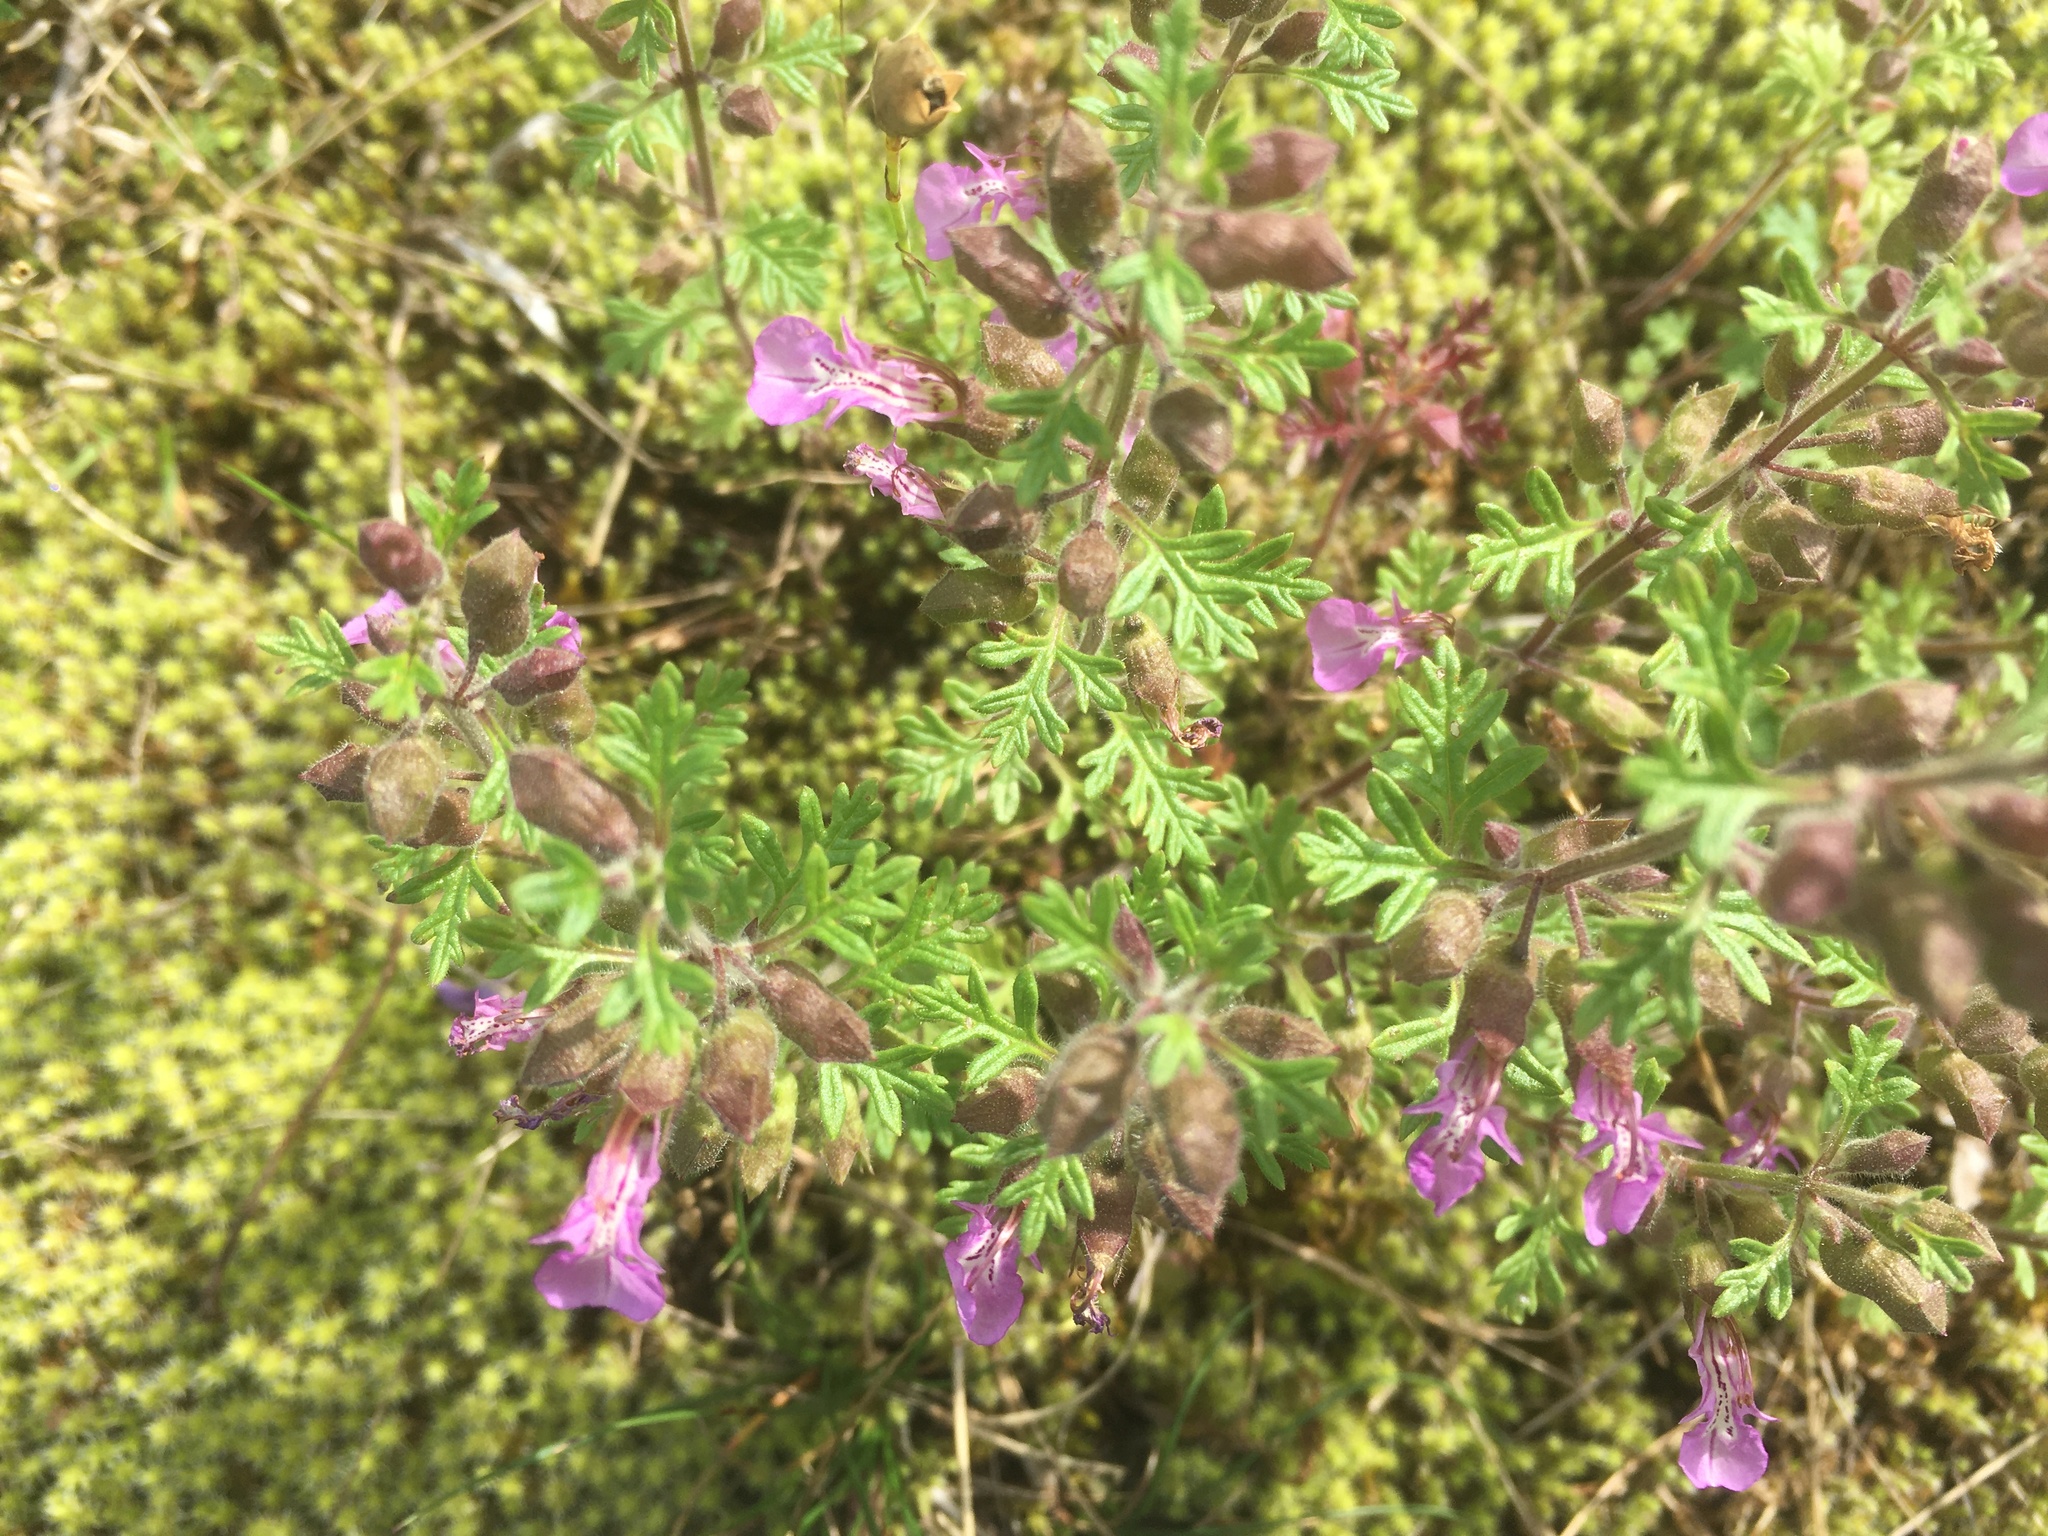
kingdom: Plantae
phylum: Tracheophyta
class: Magnoliopsida
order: Lamiales
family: Lamiaceae
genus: Teucrium
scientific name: Teucrium botrys
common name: Cut-leaved germander
